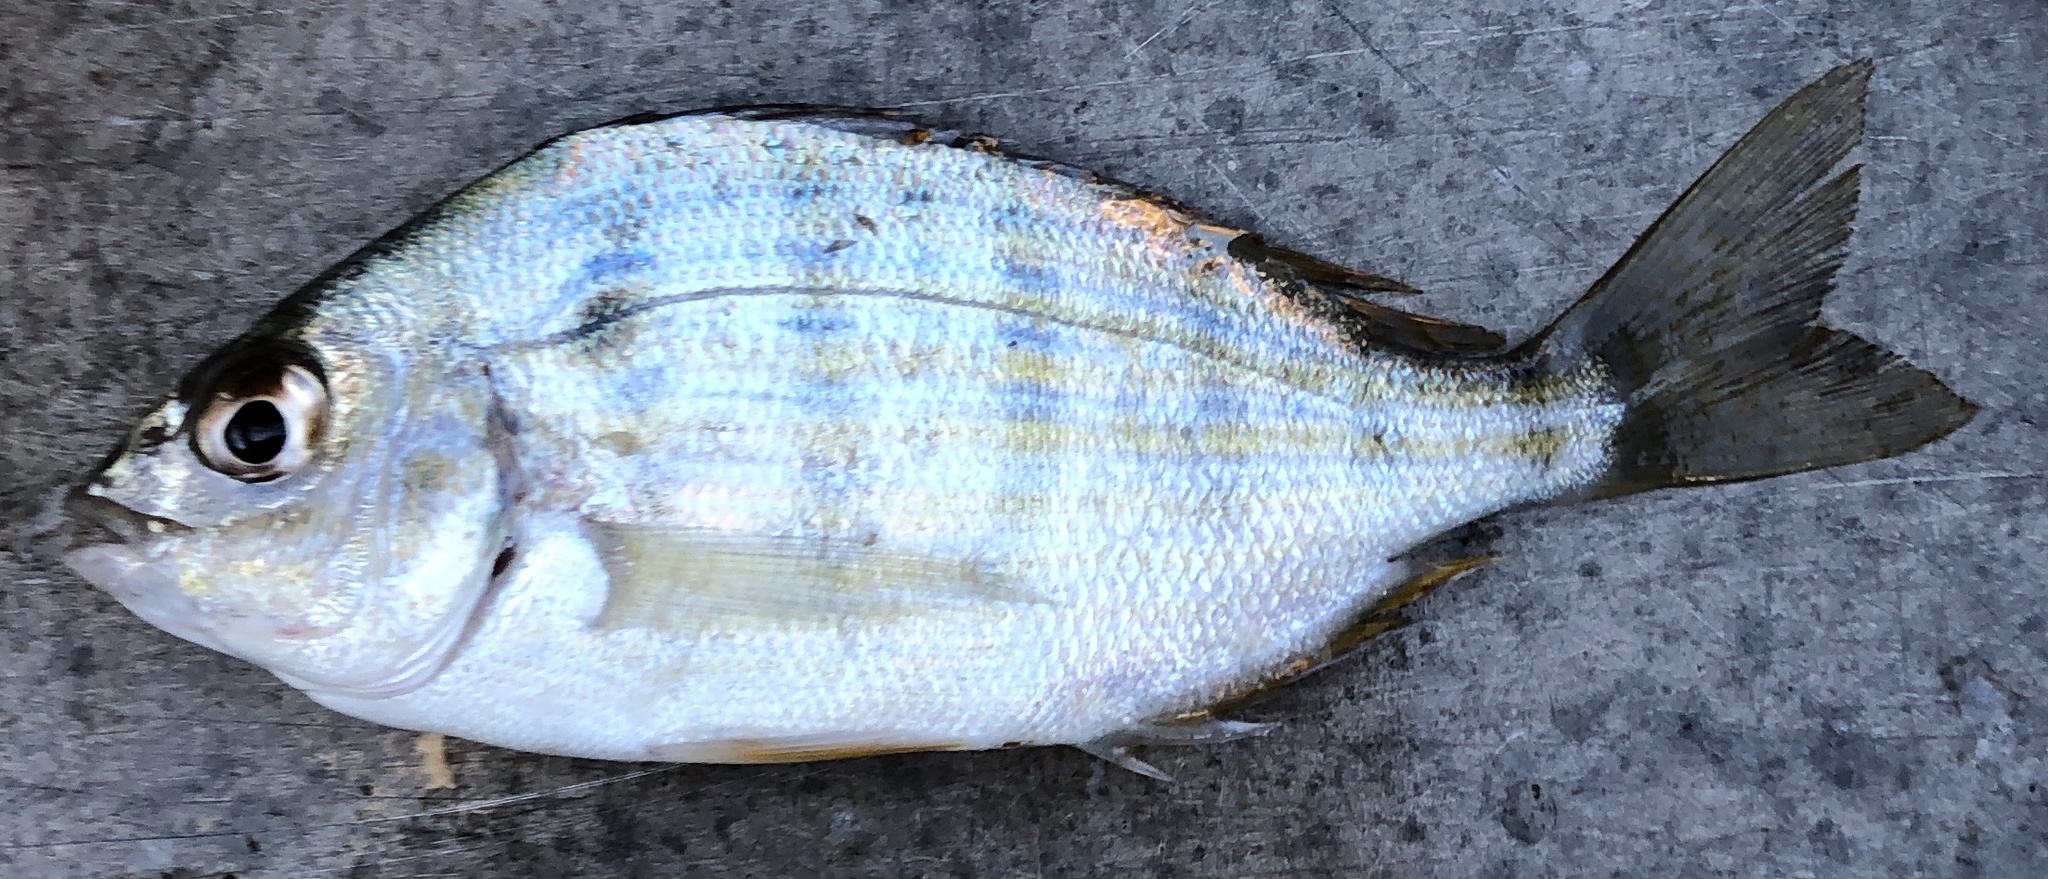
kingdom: Animalia
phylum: Chordata
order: Perciformes
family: Sparidae
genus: Lagodon
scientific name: Lagodon rhomboides
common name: Pinfish
